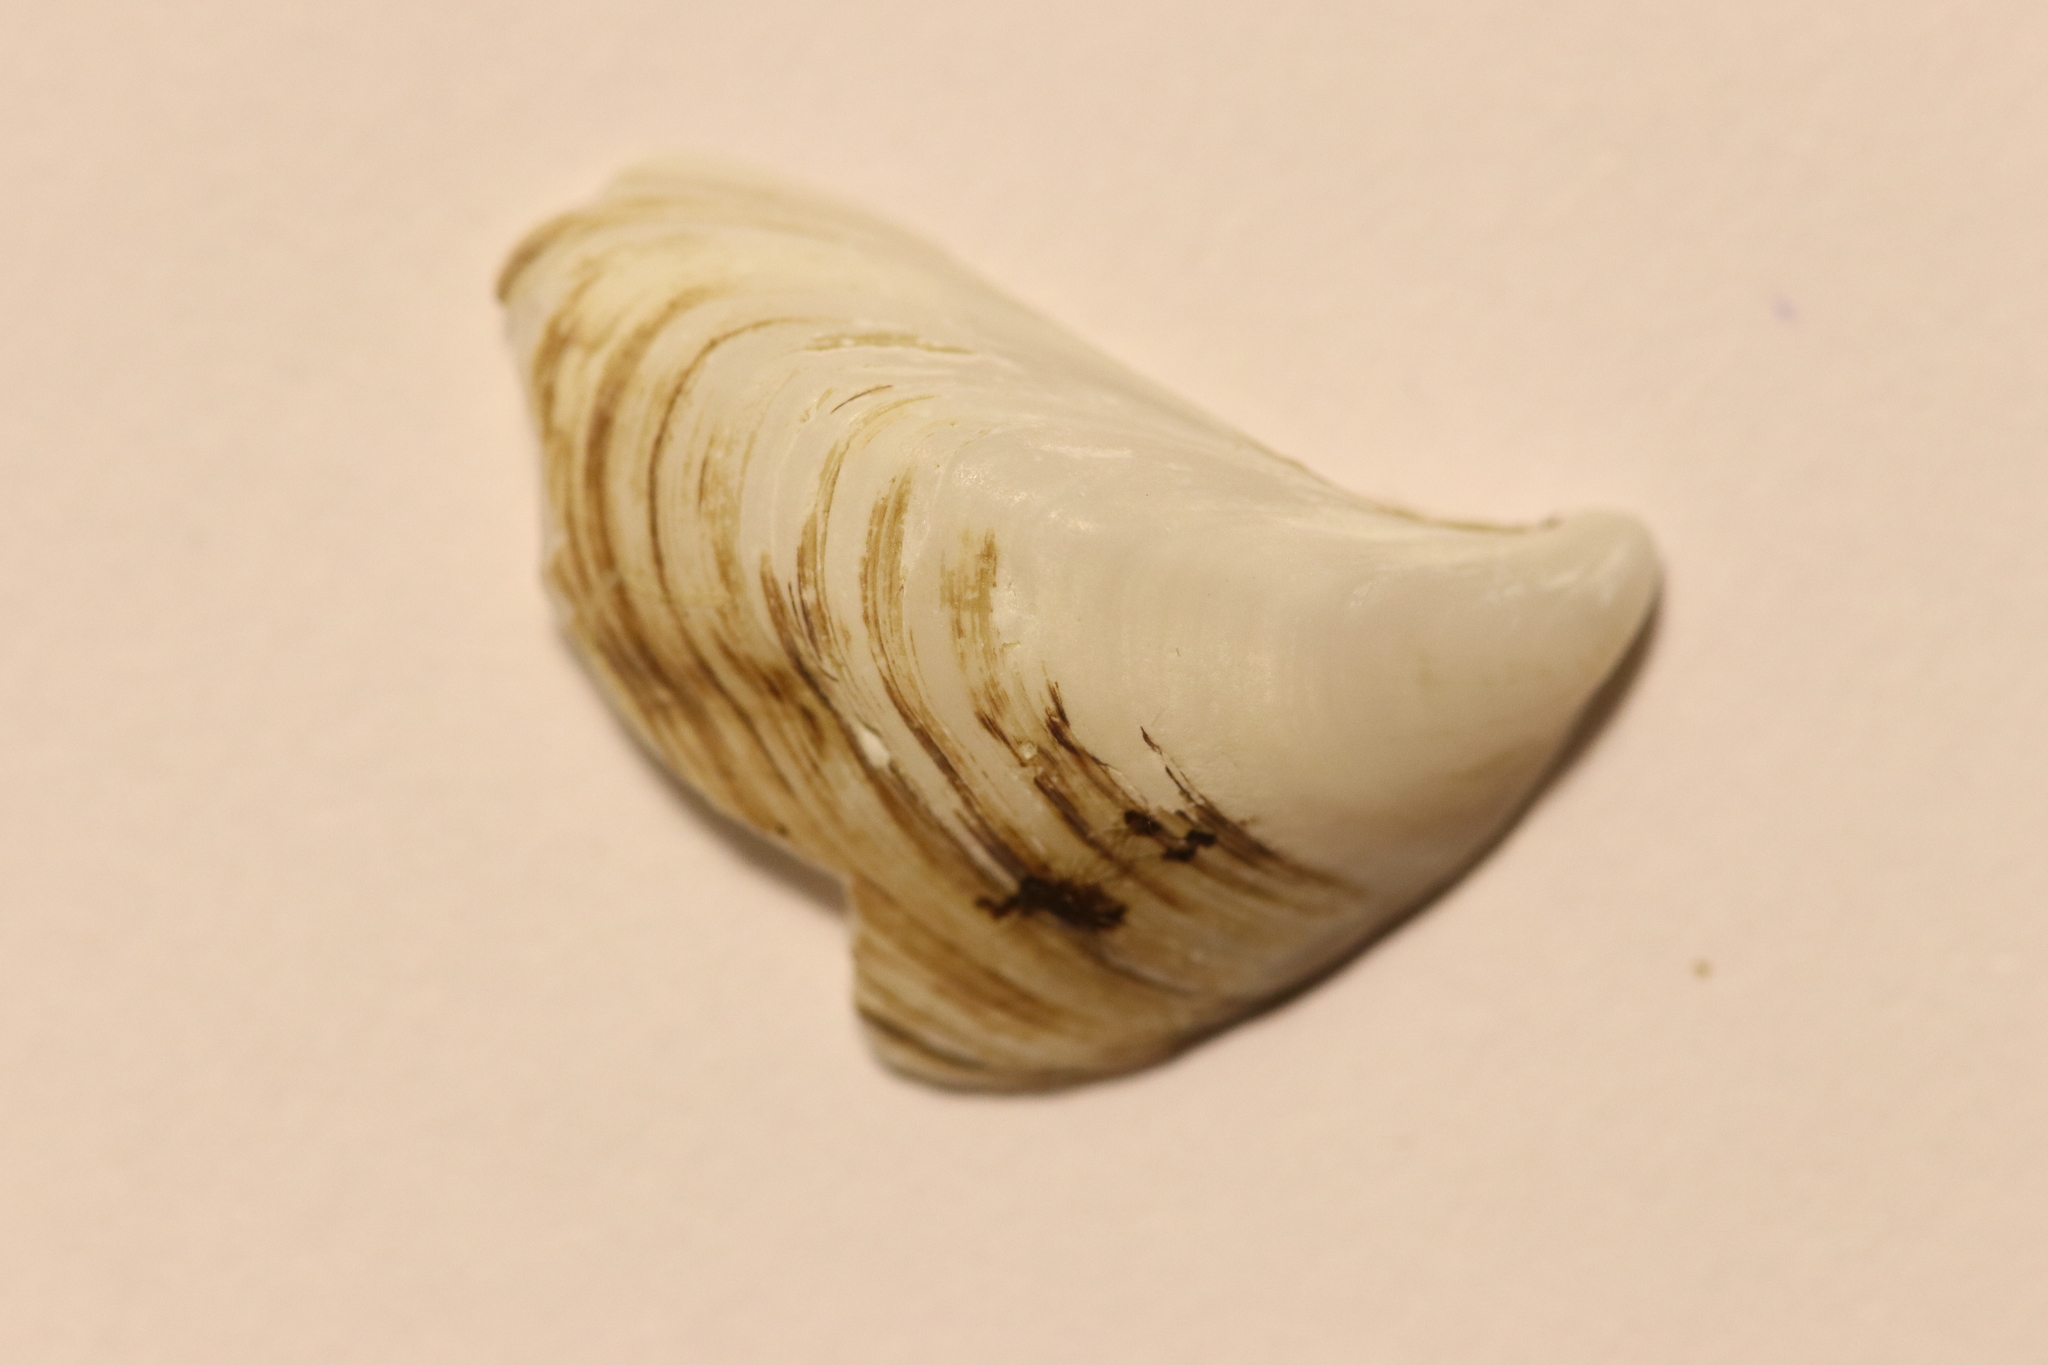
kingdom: Animalia
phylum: Mollusca
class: Bivalvia
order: Myida
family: Dreissenidae
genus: Dreissena
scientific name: Dreissena bugensis
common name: Quagga mussel
